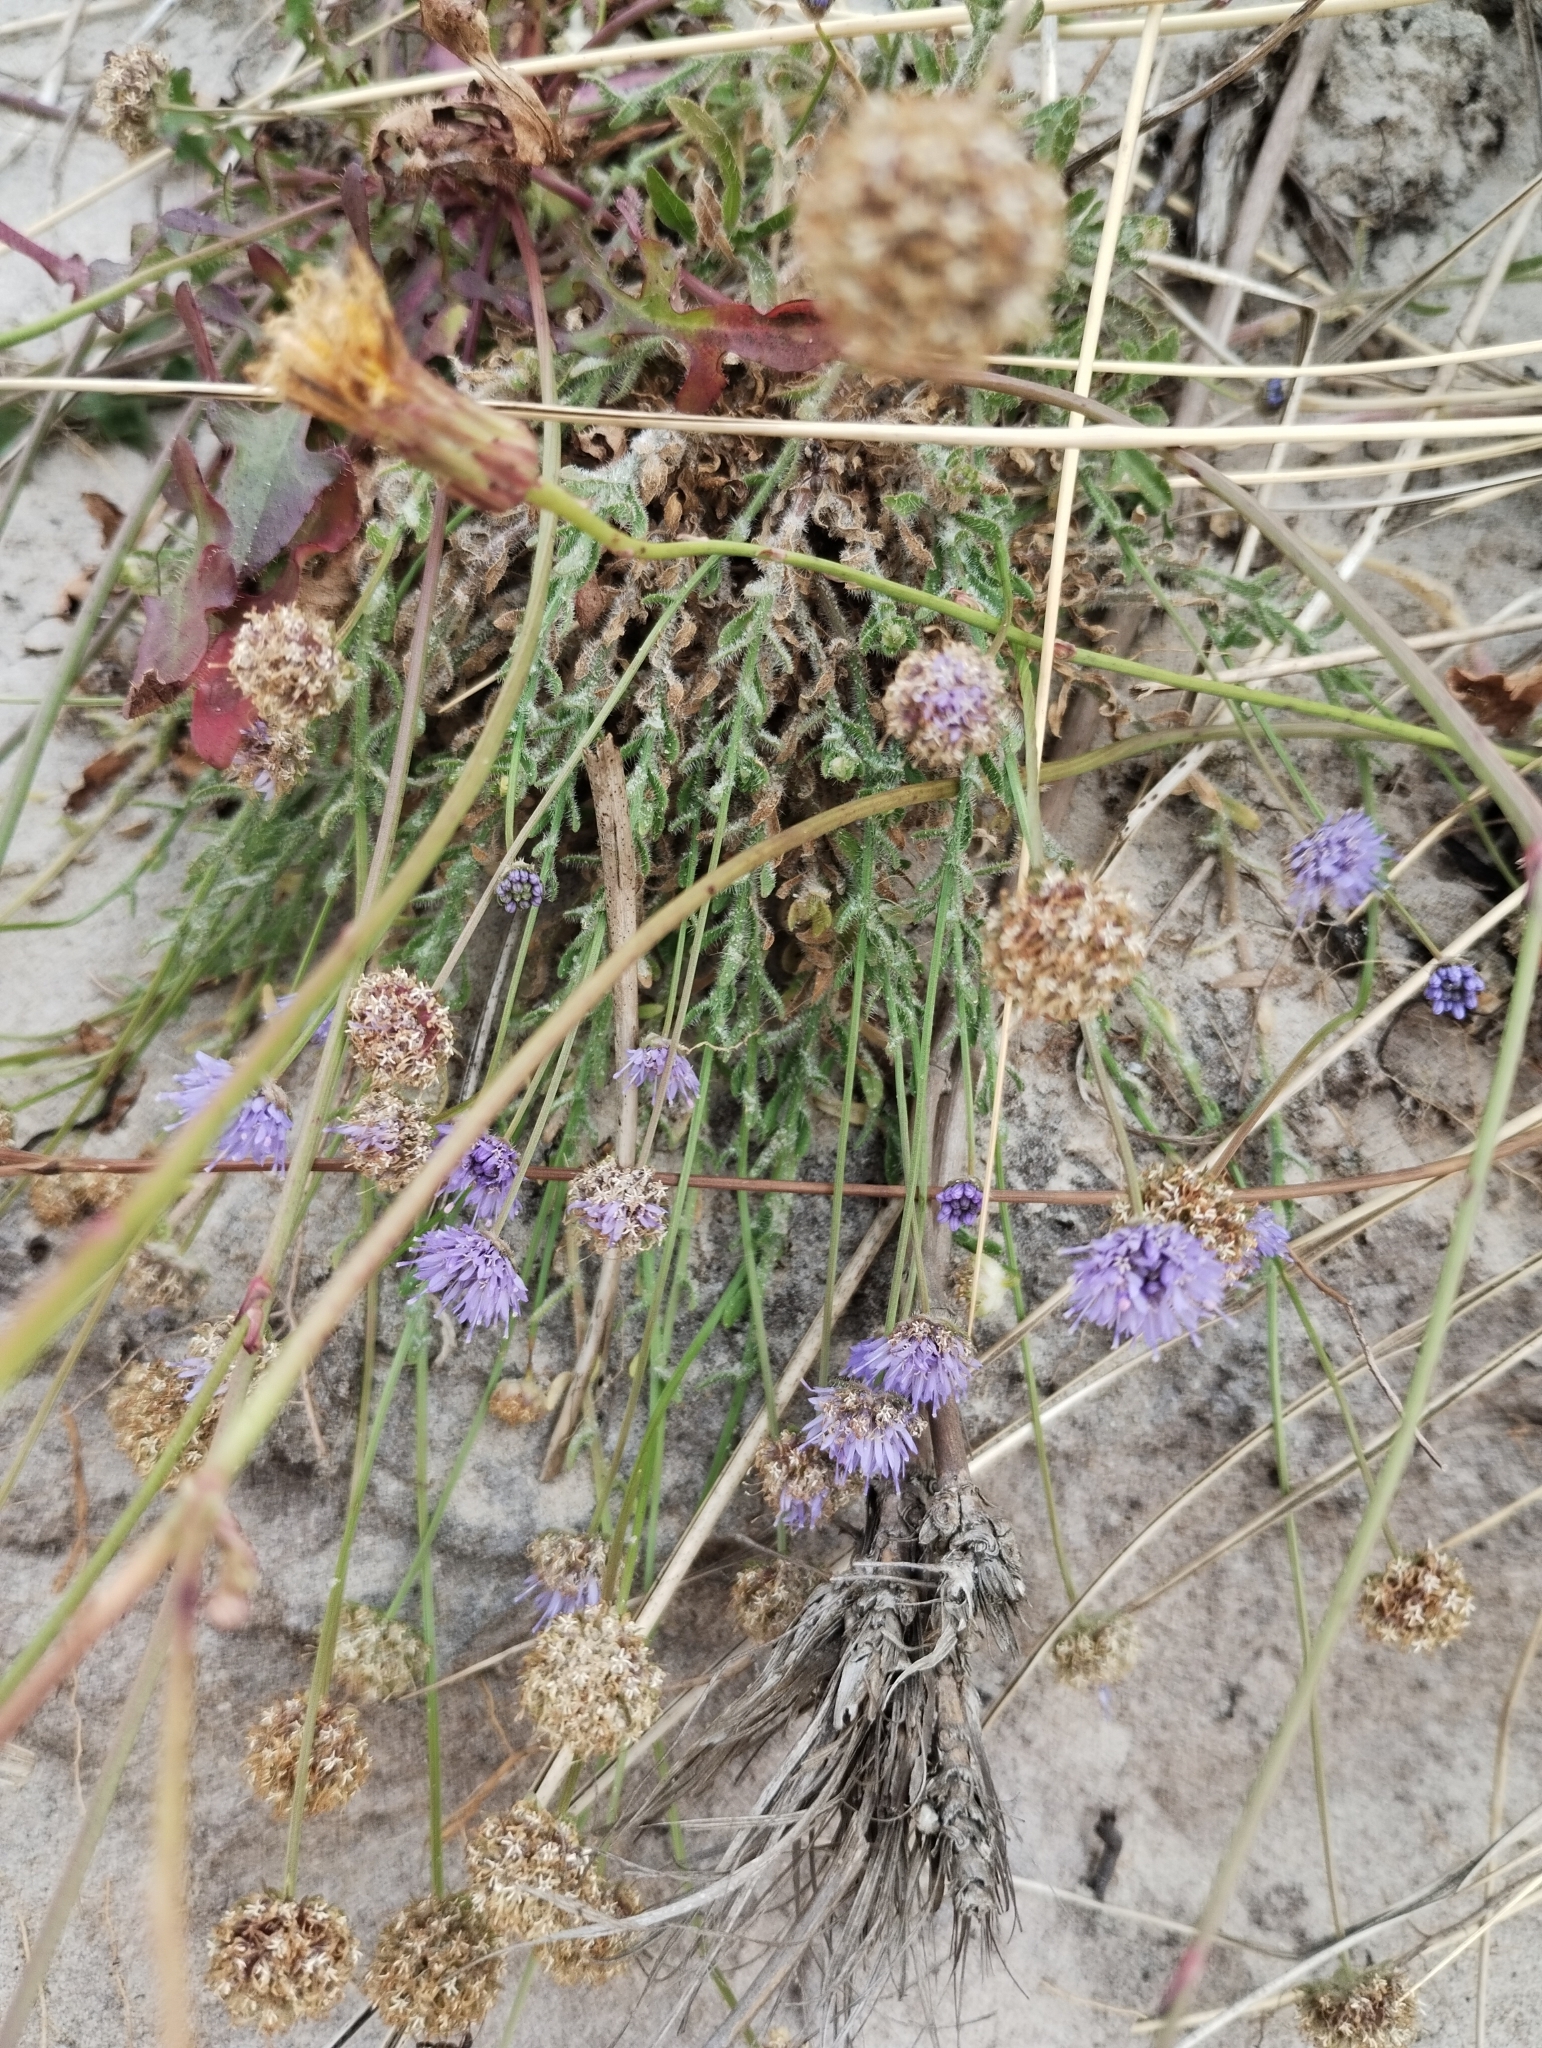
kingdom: Plantae
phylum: Tracheophyta
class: Magnoliopsida
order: Asterales
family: Campanulaceae
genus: Jasione
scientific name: Jasione montana
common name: Sheep's-bit
